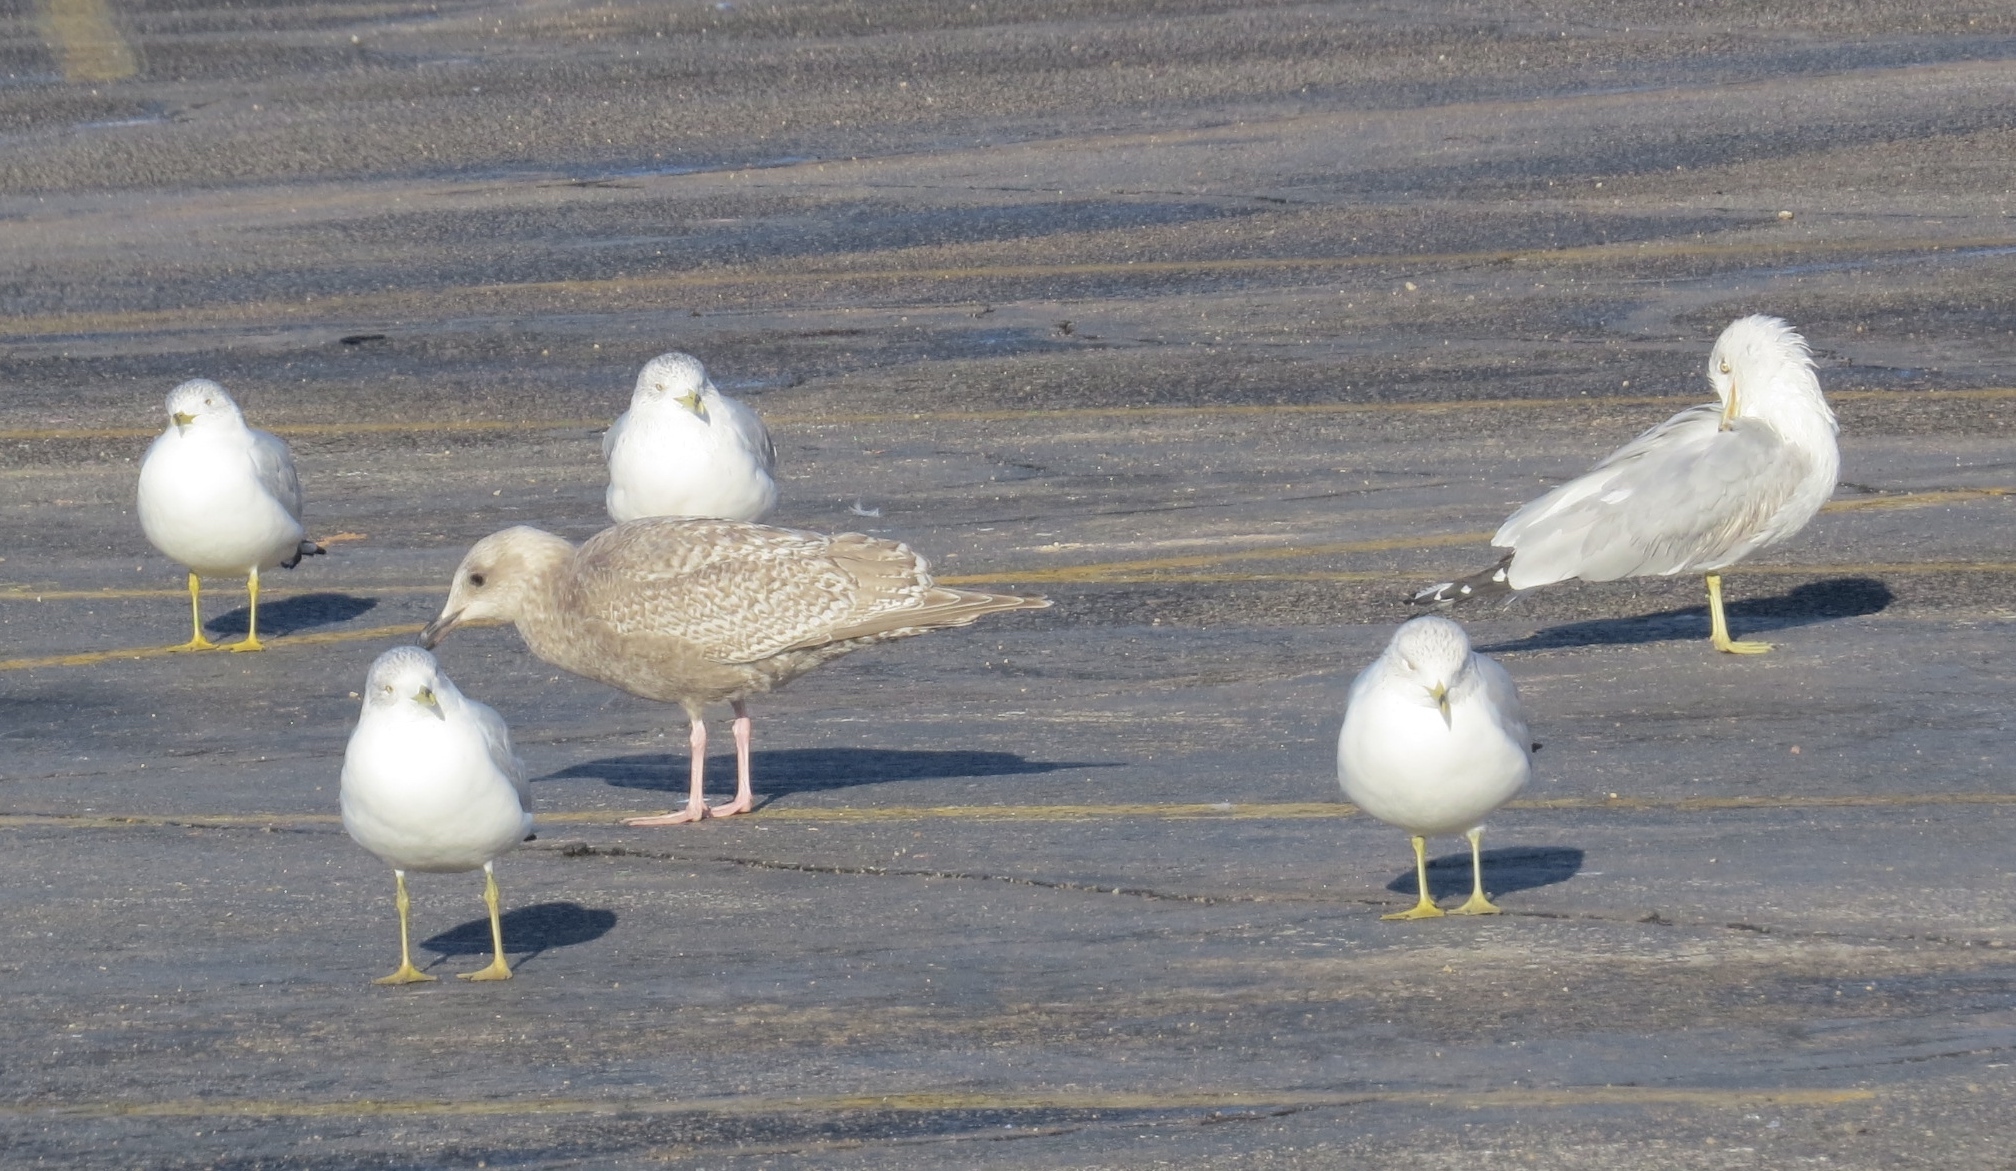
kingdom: Animalia
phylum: Chordata
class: Aves
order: Charadriiformes
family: Laridae
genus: Larus
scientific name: Larus glaucoides
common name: Iceland gull
